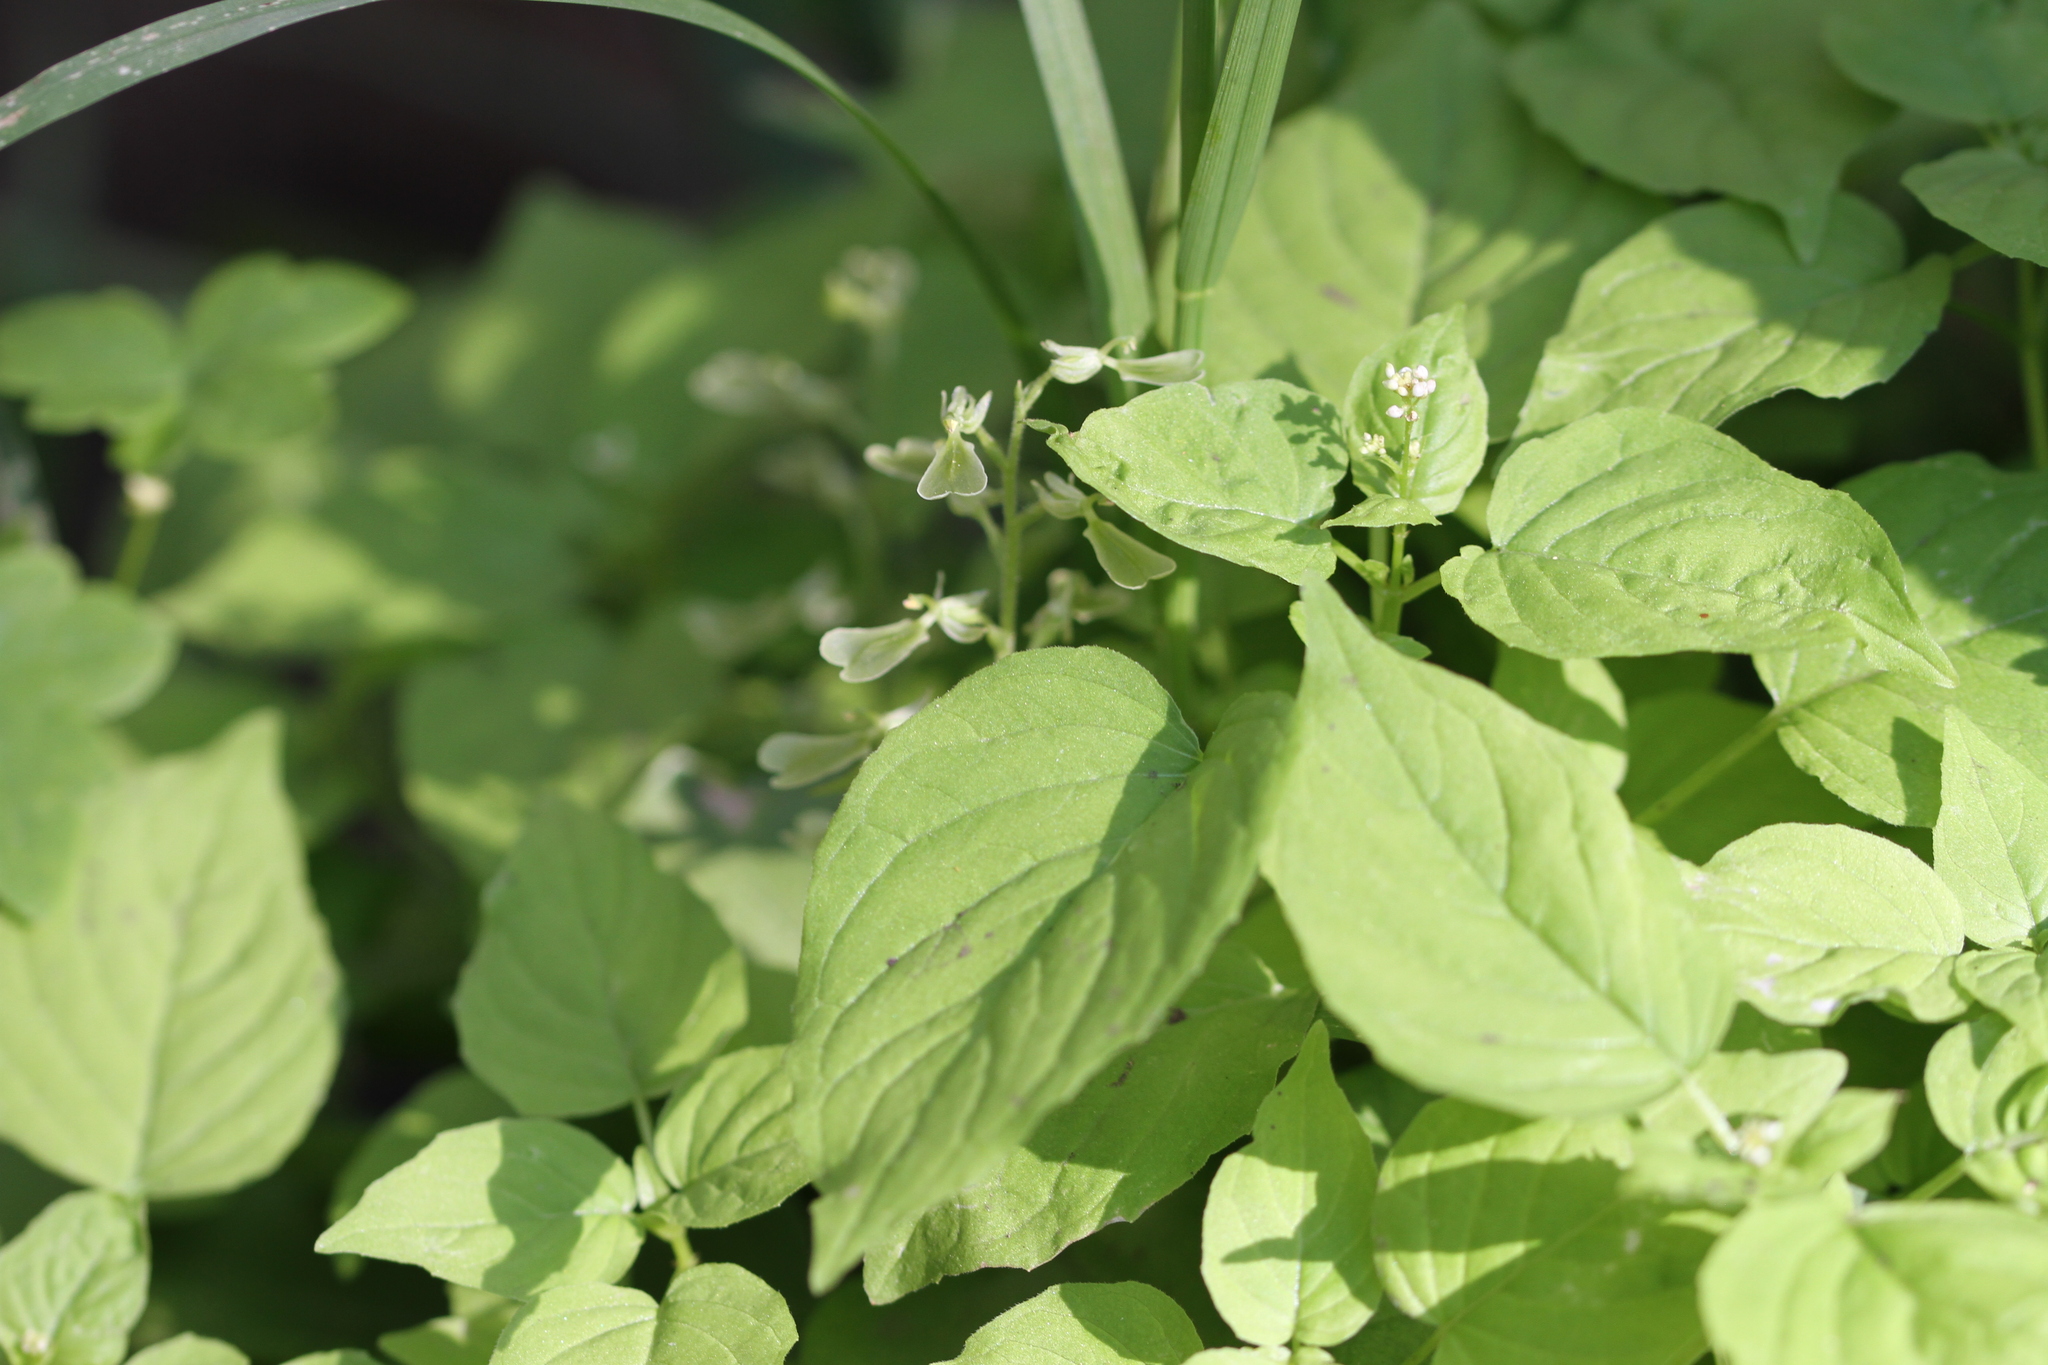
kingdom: Plantae
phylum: Tracheophyta
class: Liliopsida
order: Asparagales
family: Orchidaceae
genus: Neottia
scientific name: Neottia convallarioides
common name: Broadleaf twayblade
